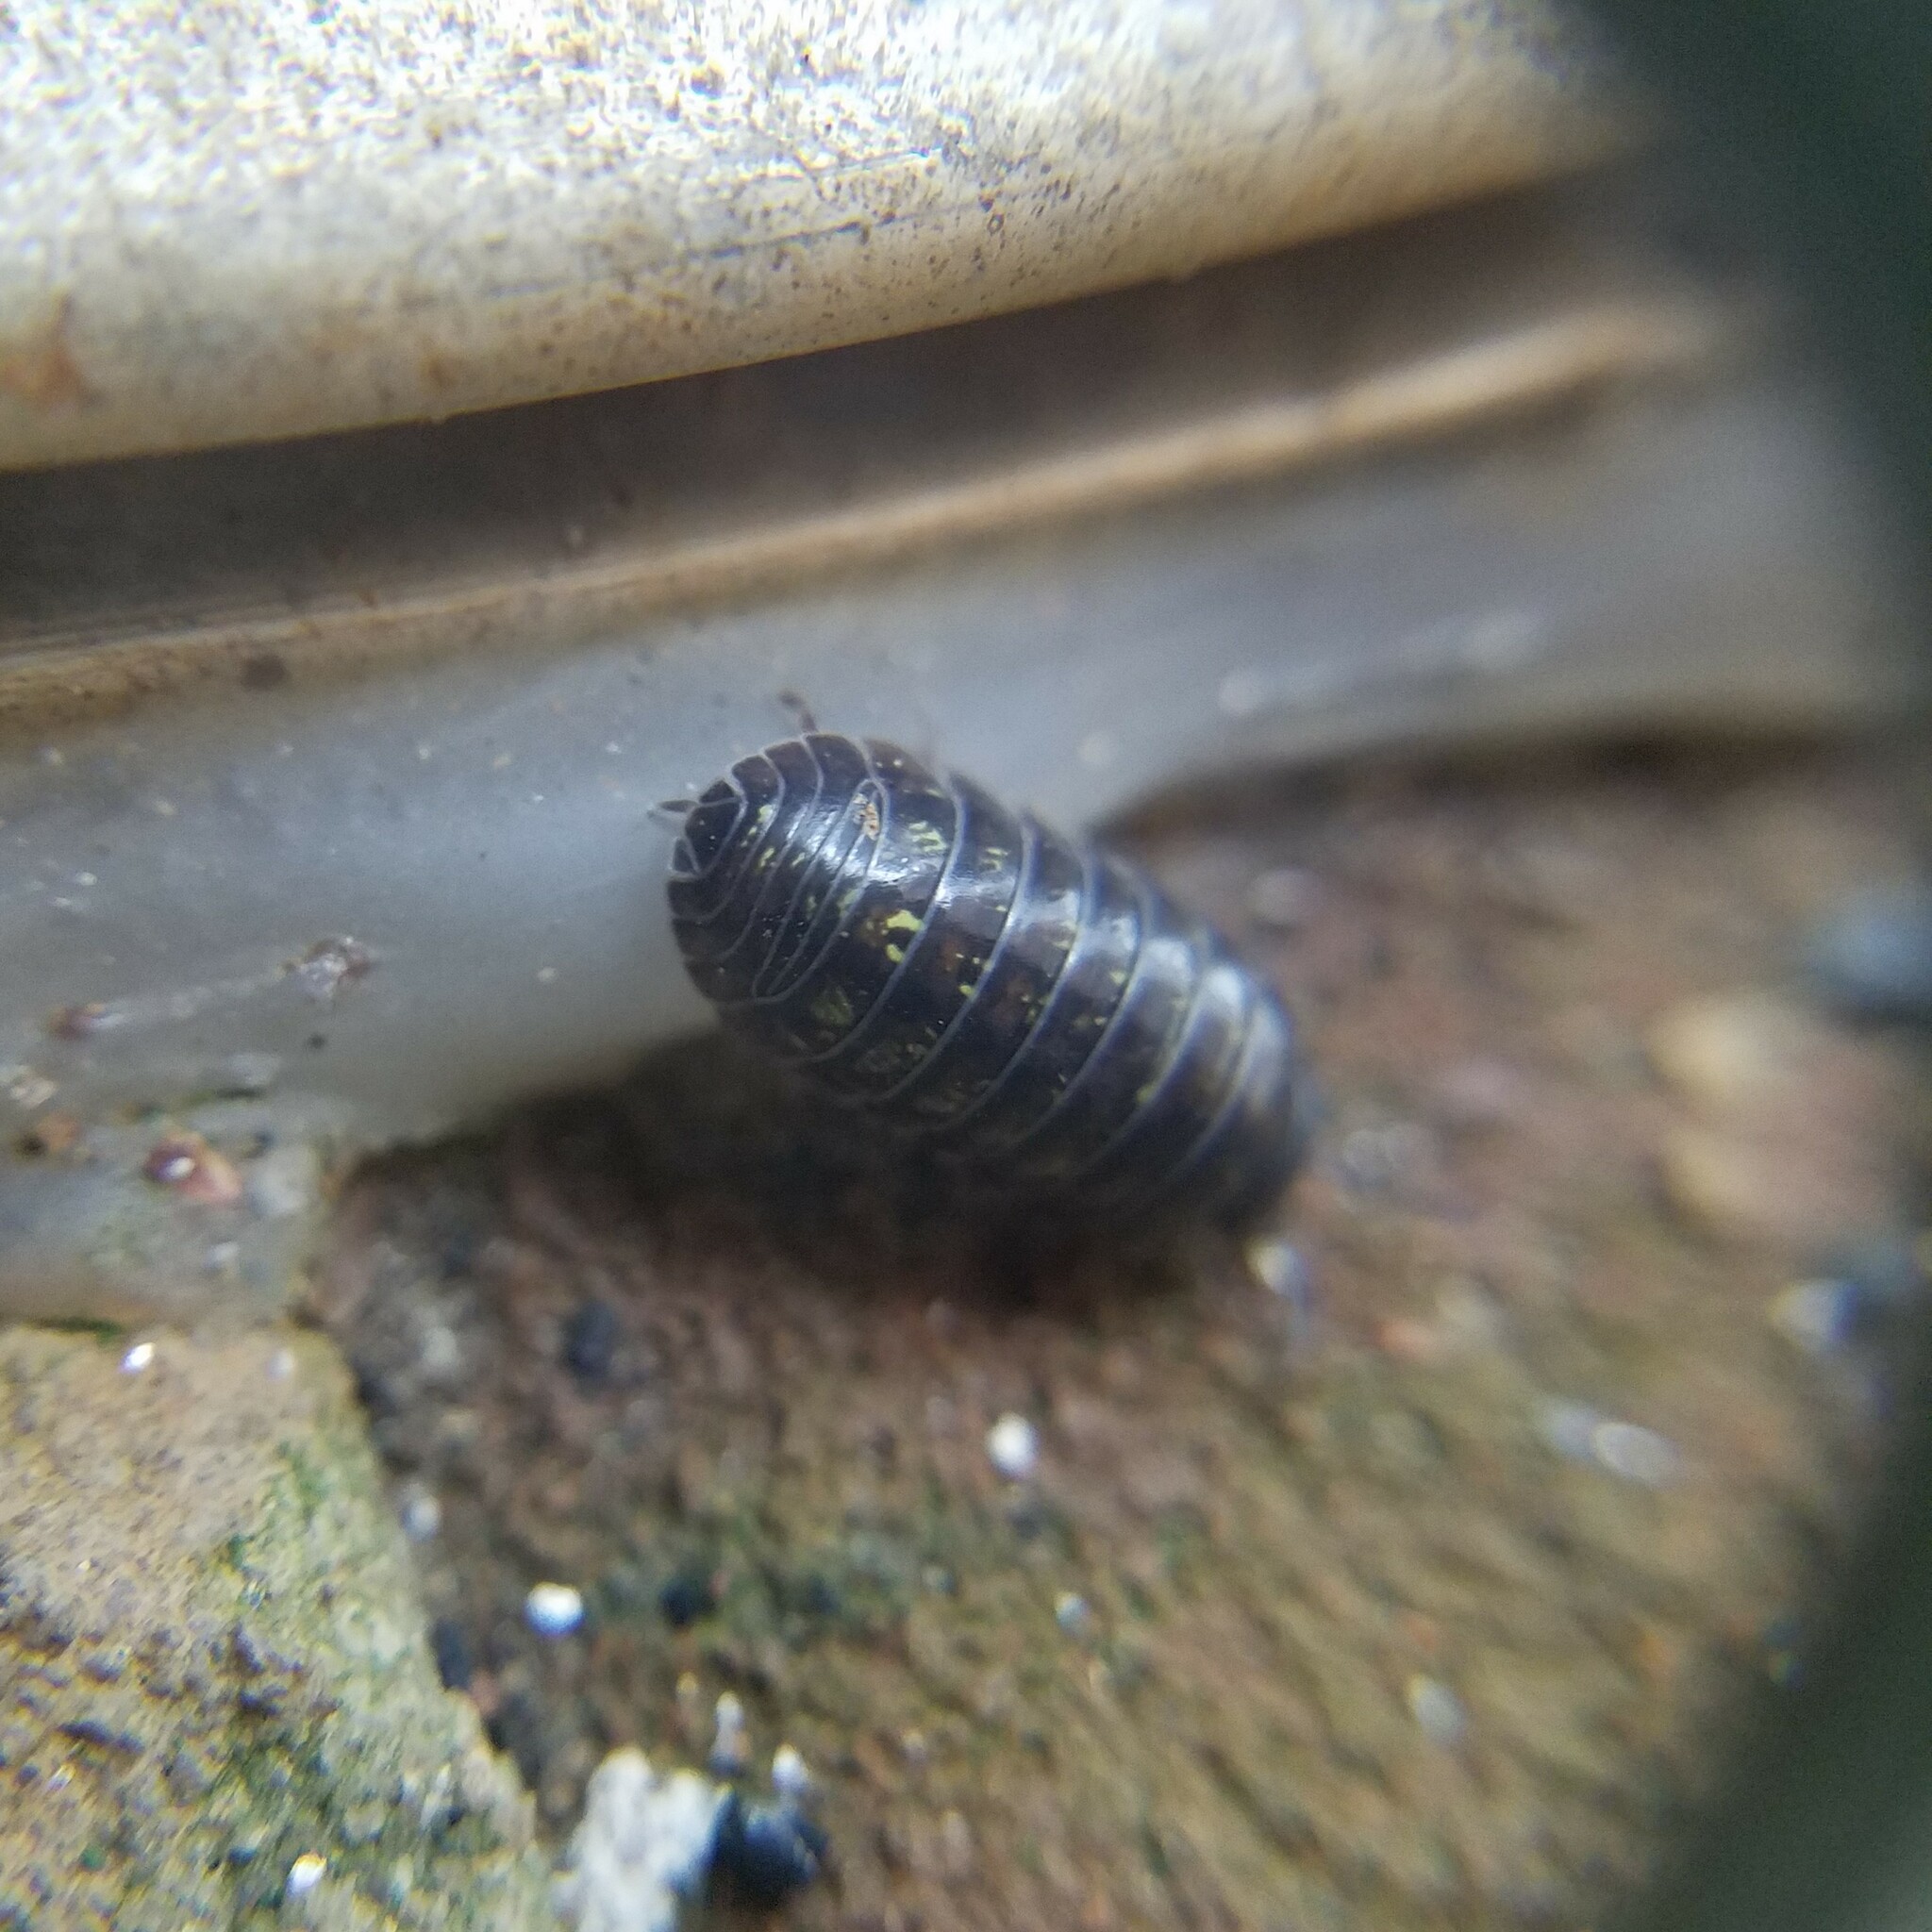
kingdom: Animalia
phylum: Arthropoda
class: Malacostraca
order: Isopoda
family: Armadillidiidae
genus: Armadillidium
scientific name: Armadillidium vulgare
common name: Common pill woodlouse
